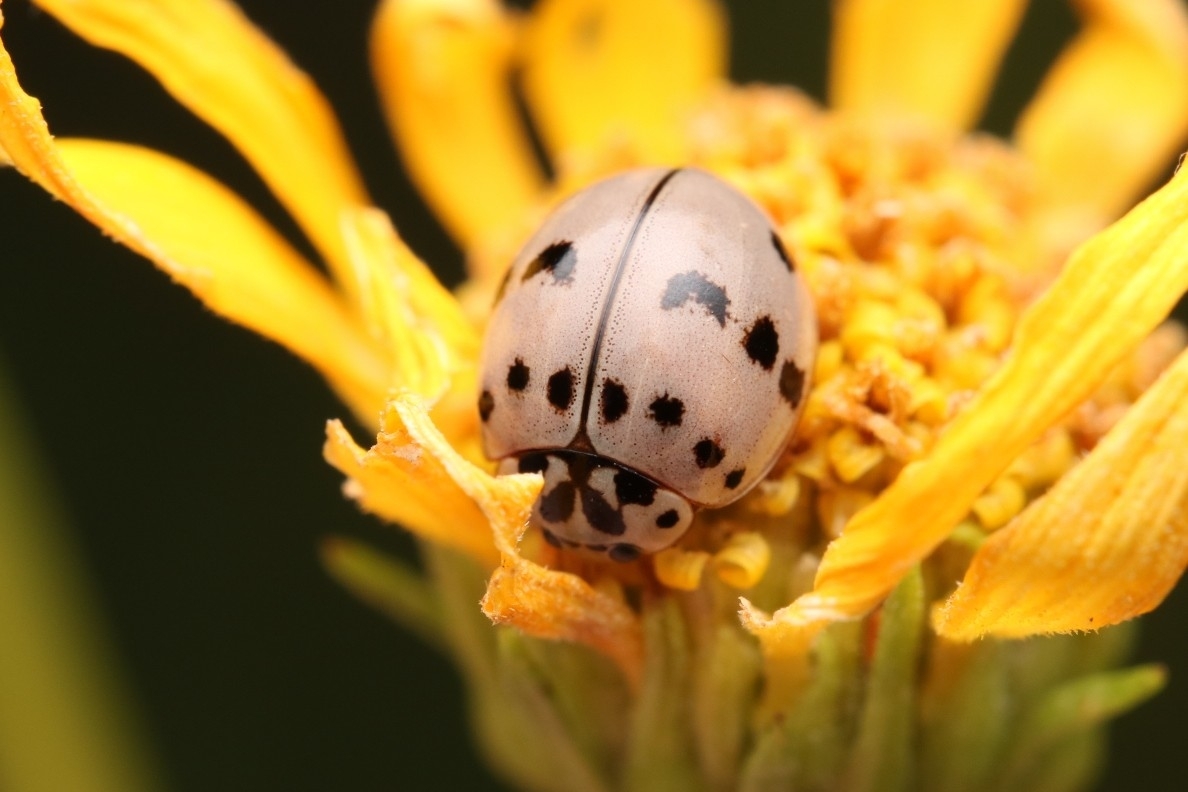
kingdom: Animalia
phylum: Arthropoda
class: Insecta
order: Coleoptera
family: Coccinellidae
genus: Olla
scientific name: Olla v-nigrum
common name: Ashy gray lady beetle
